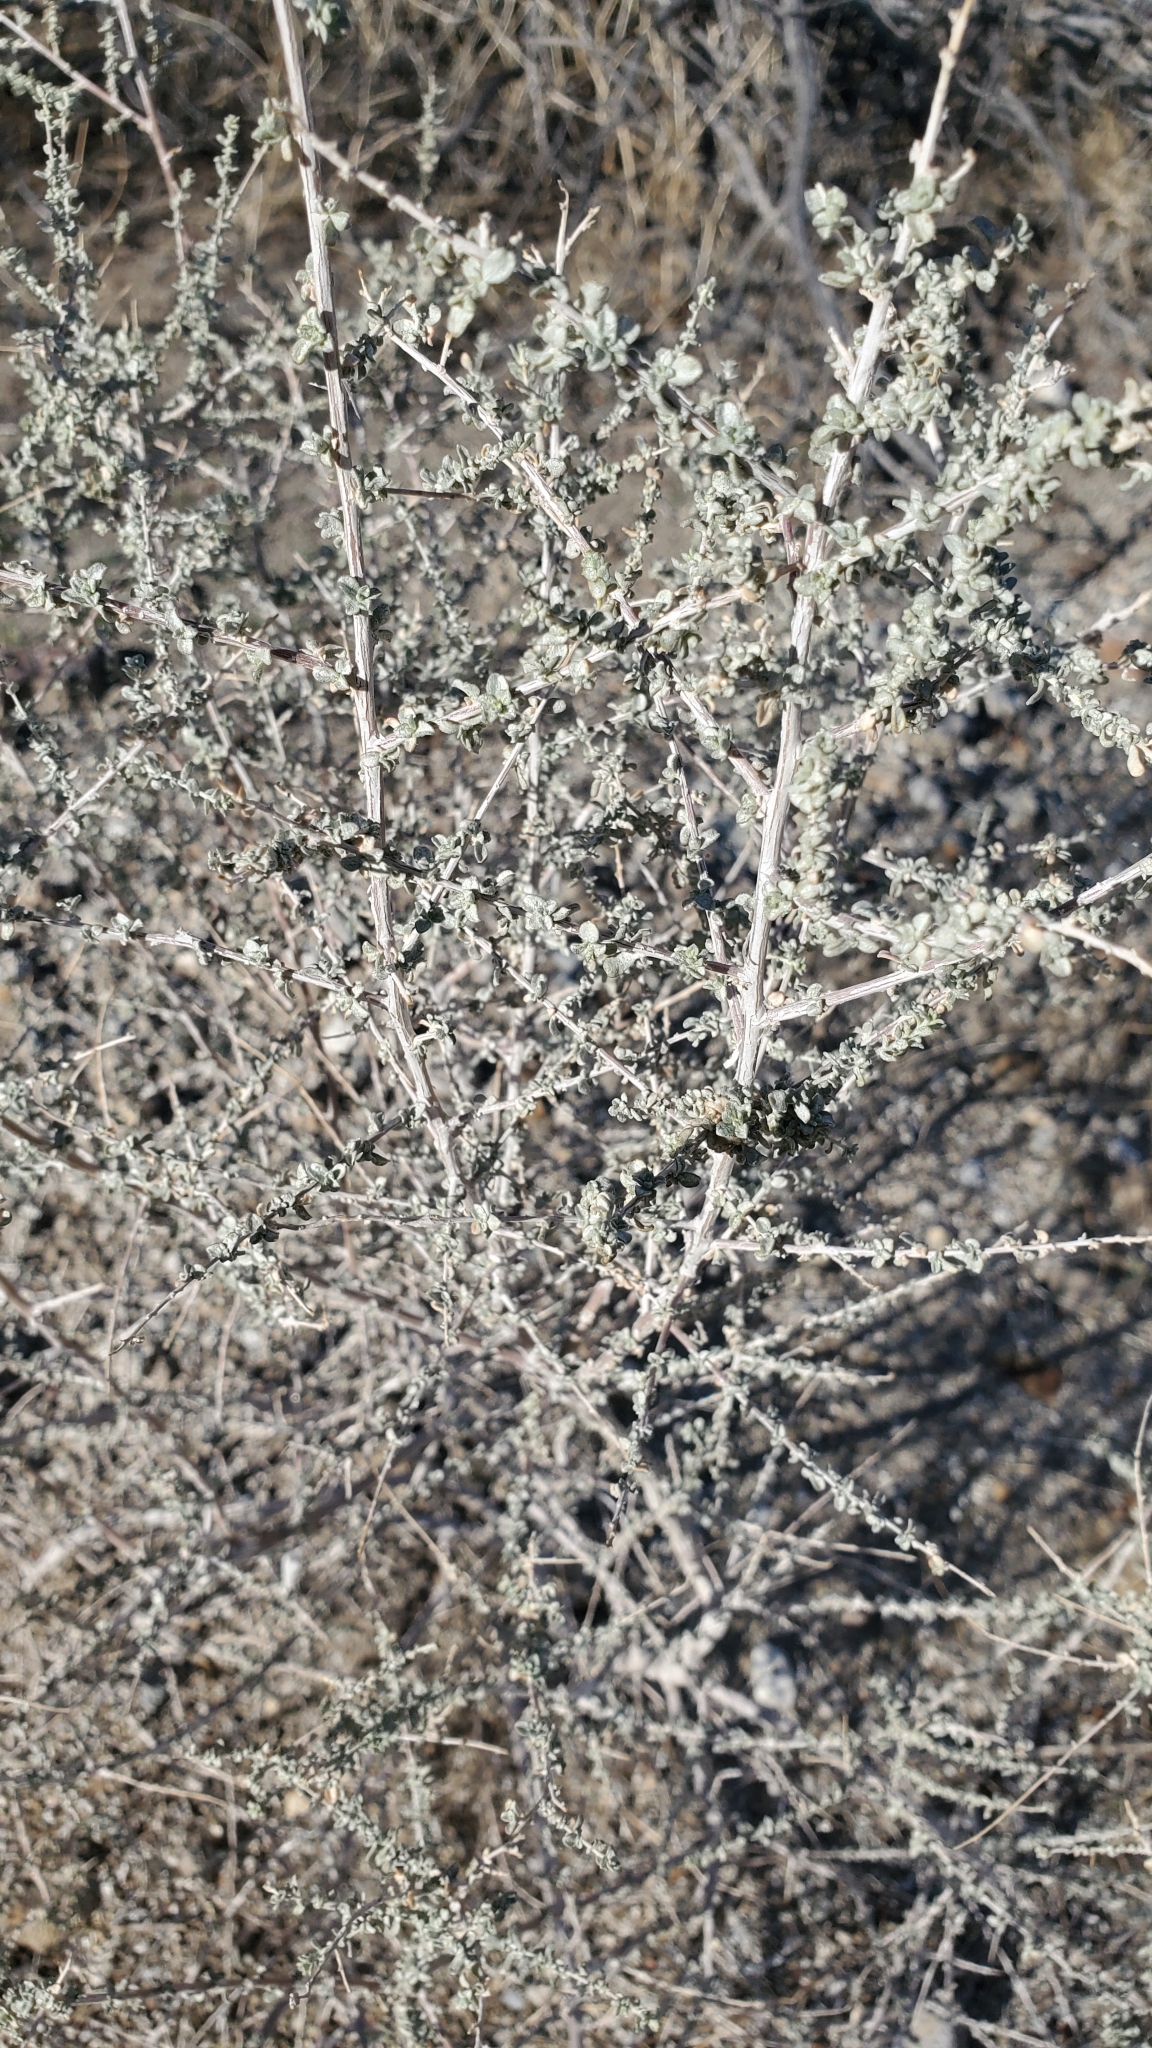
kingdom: Plantae
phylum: Tracheophyta
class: Magnoliopsida
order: Caryophyllales
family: Amaranthaceae
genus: Atriplex
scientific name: Atriplex polycarpa
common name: Desert saltbush
